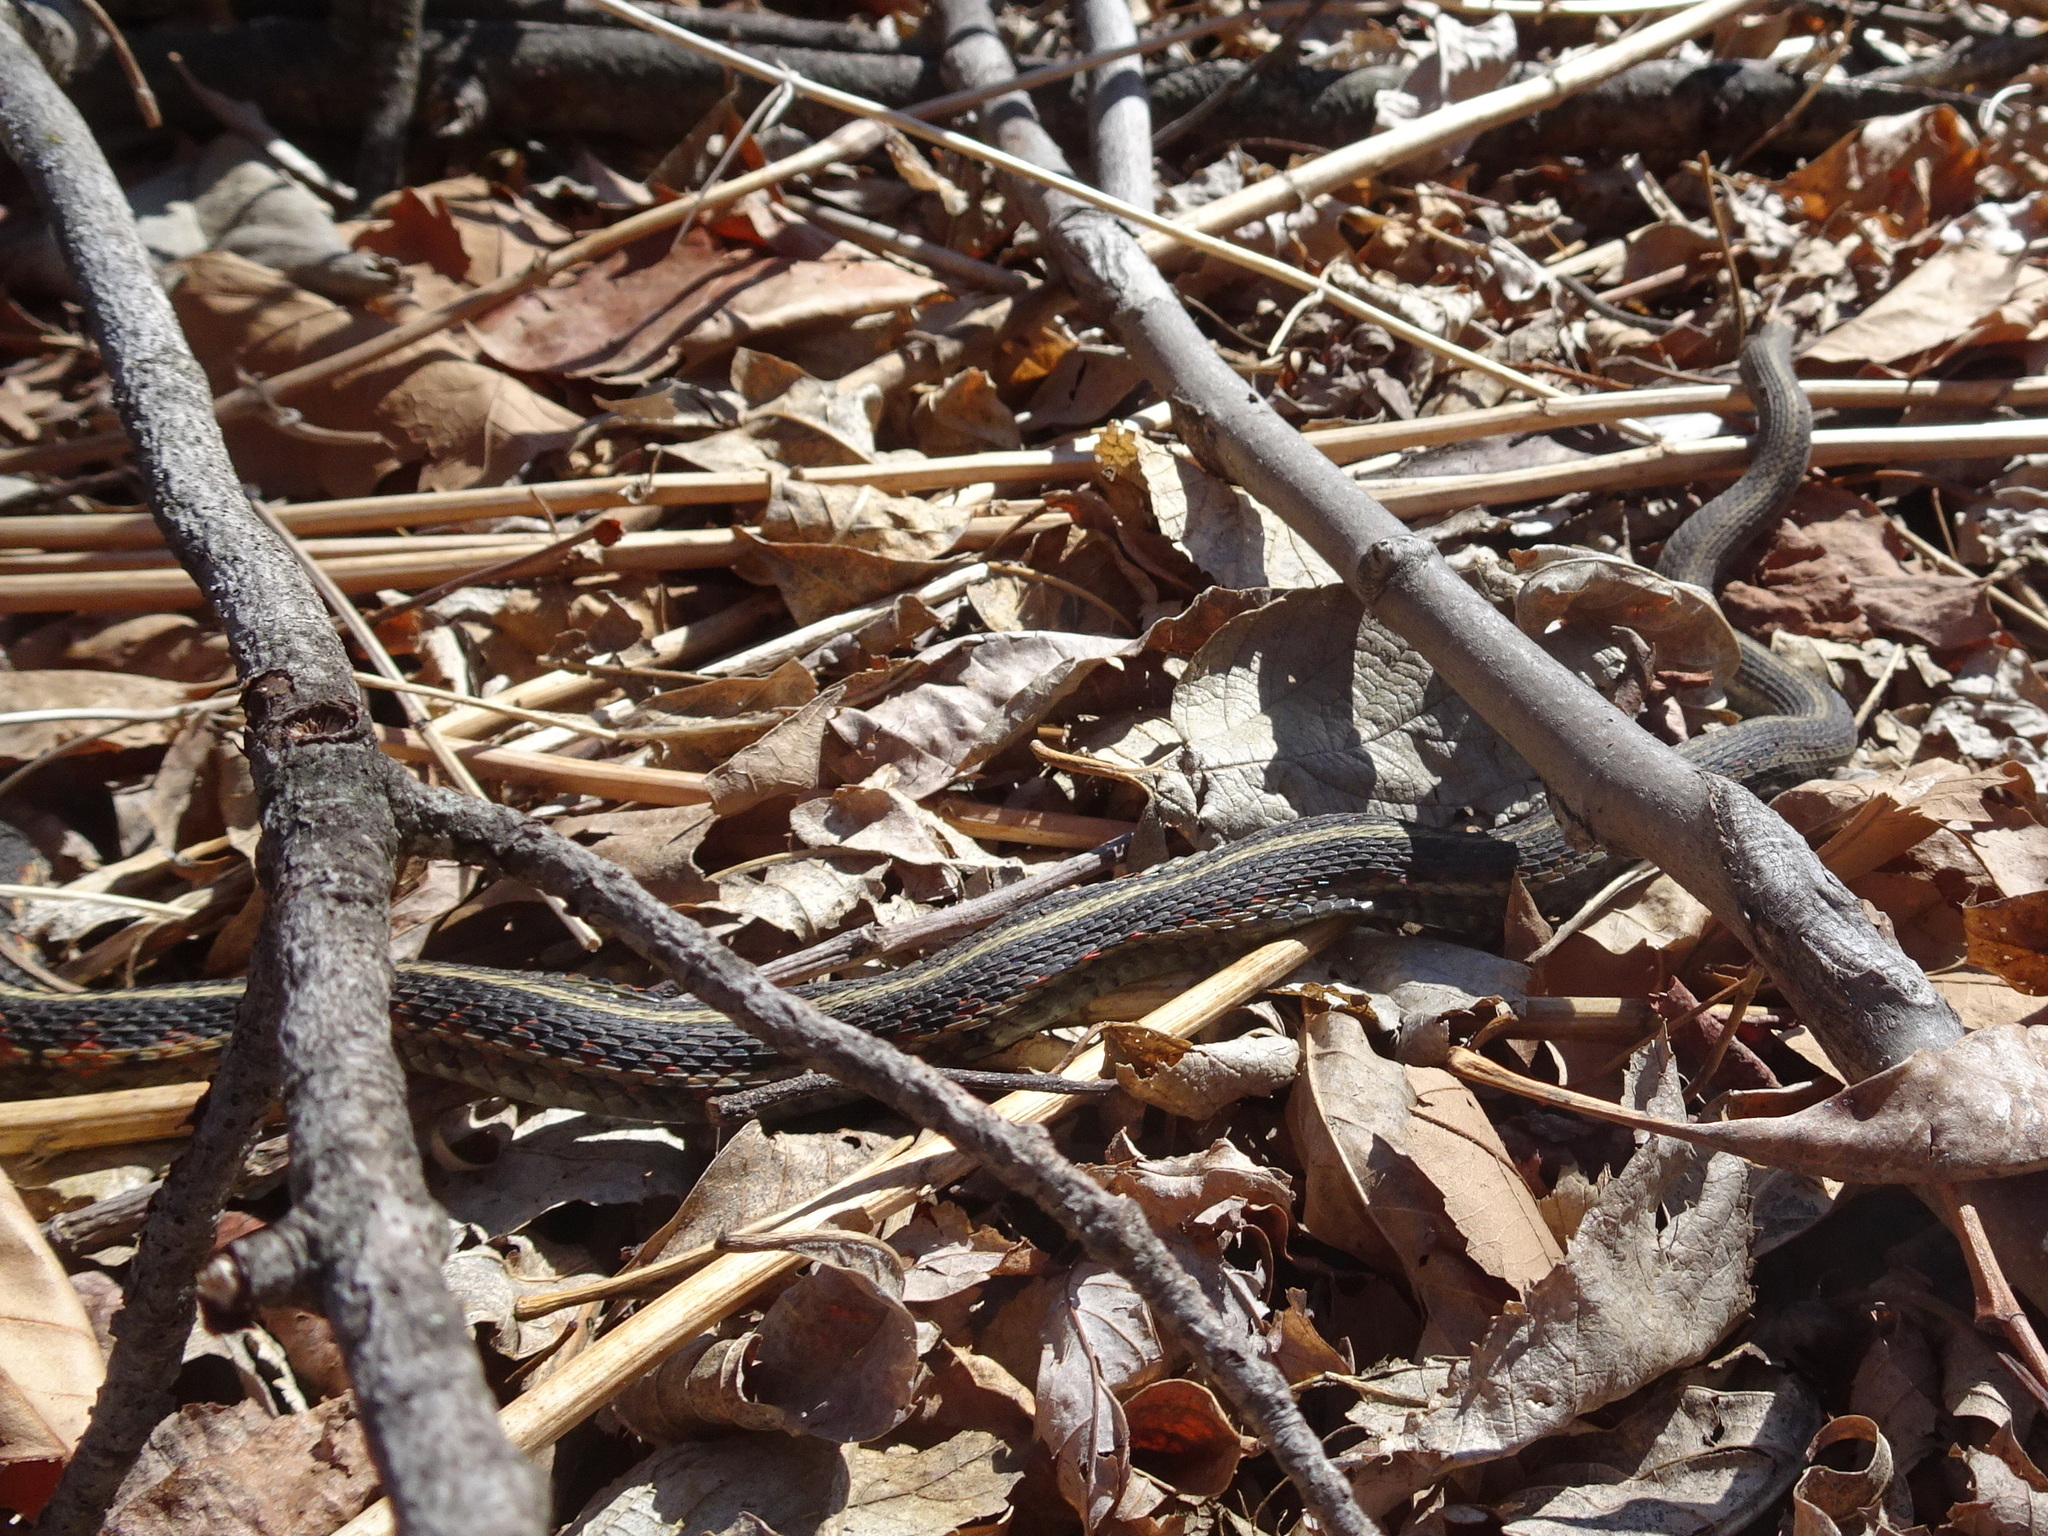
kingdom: Animalia
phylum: Chordata
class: Squamata
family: Colubridae
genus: Thamnophis
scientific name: Thamnophis sirtalis
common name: Common garter snake
